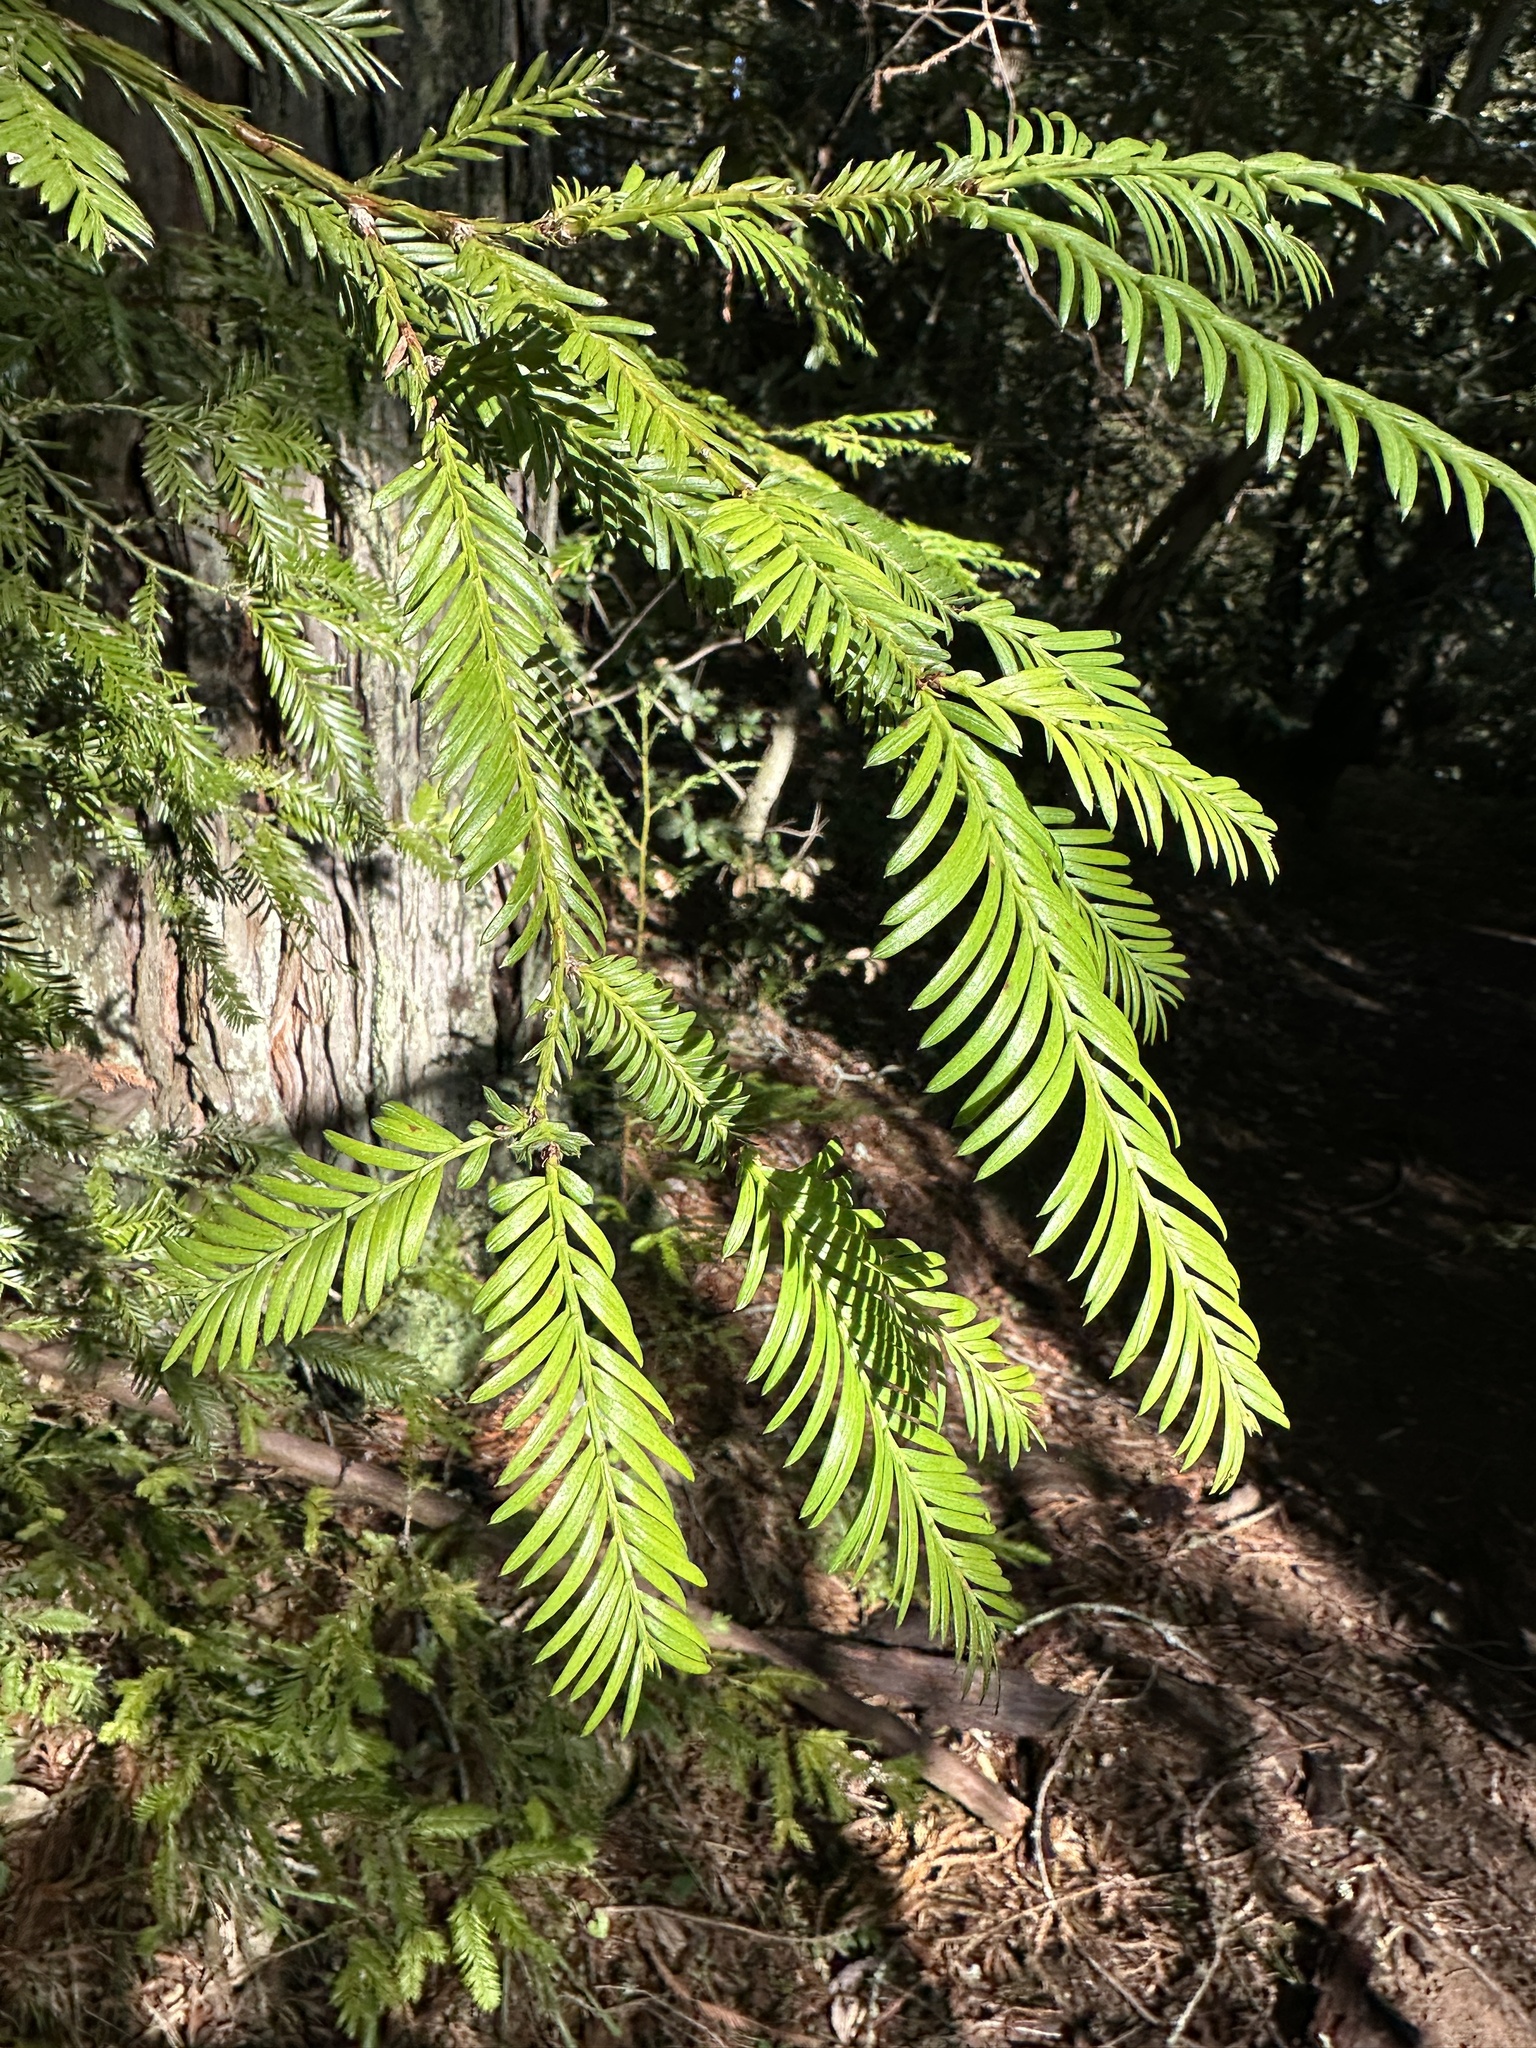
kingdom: Plantae
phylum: Tracheophyta
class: Pinopsida
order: Pinales
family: Cupressaceae
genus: Sequoia
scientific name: Sequoia sempervirens
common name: Coast redwood
